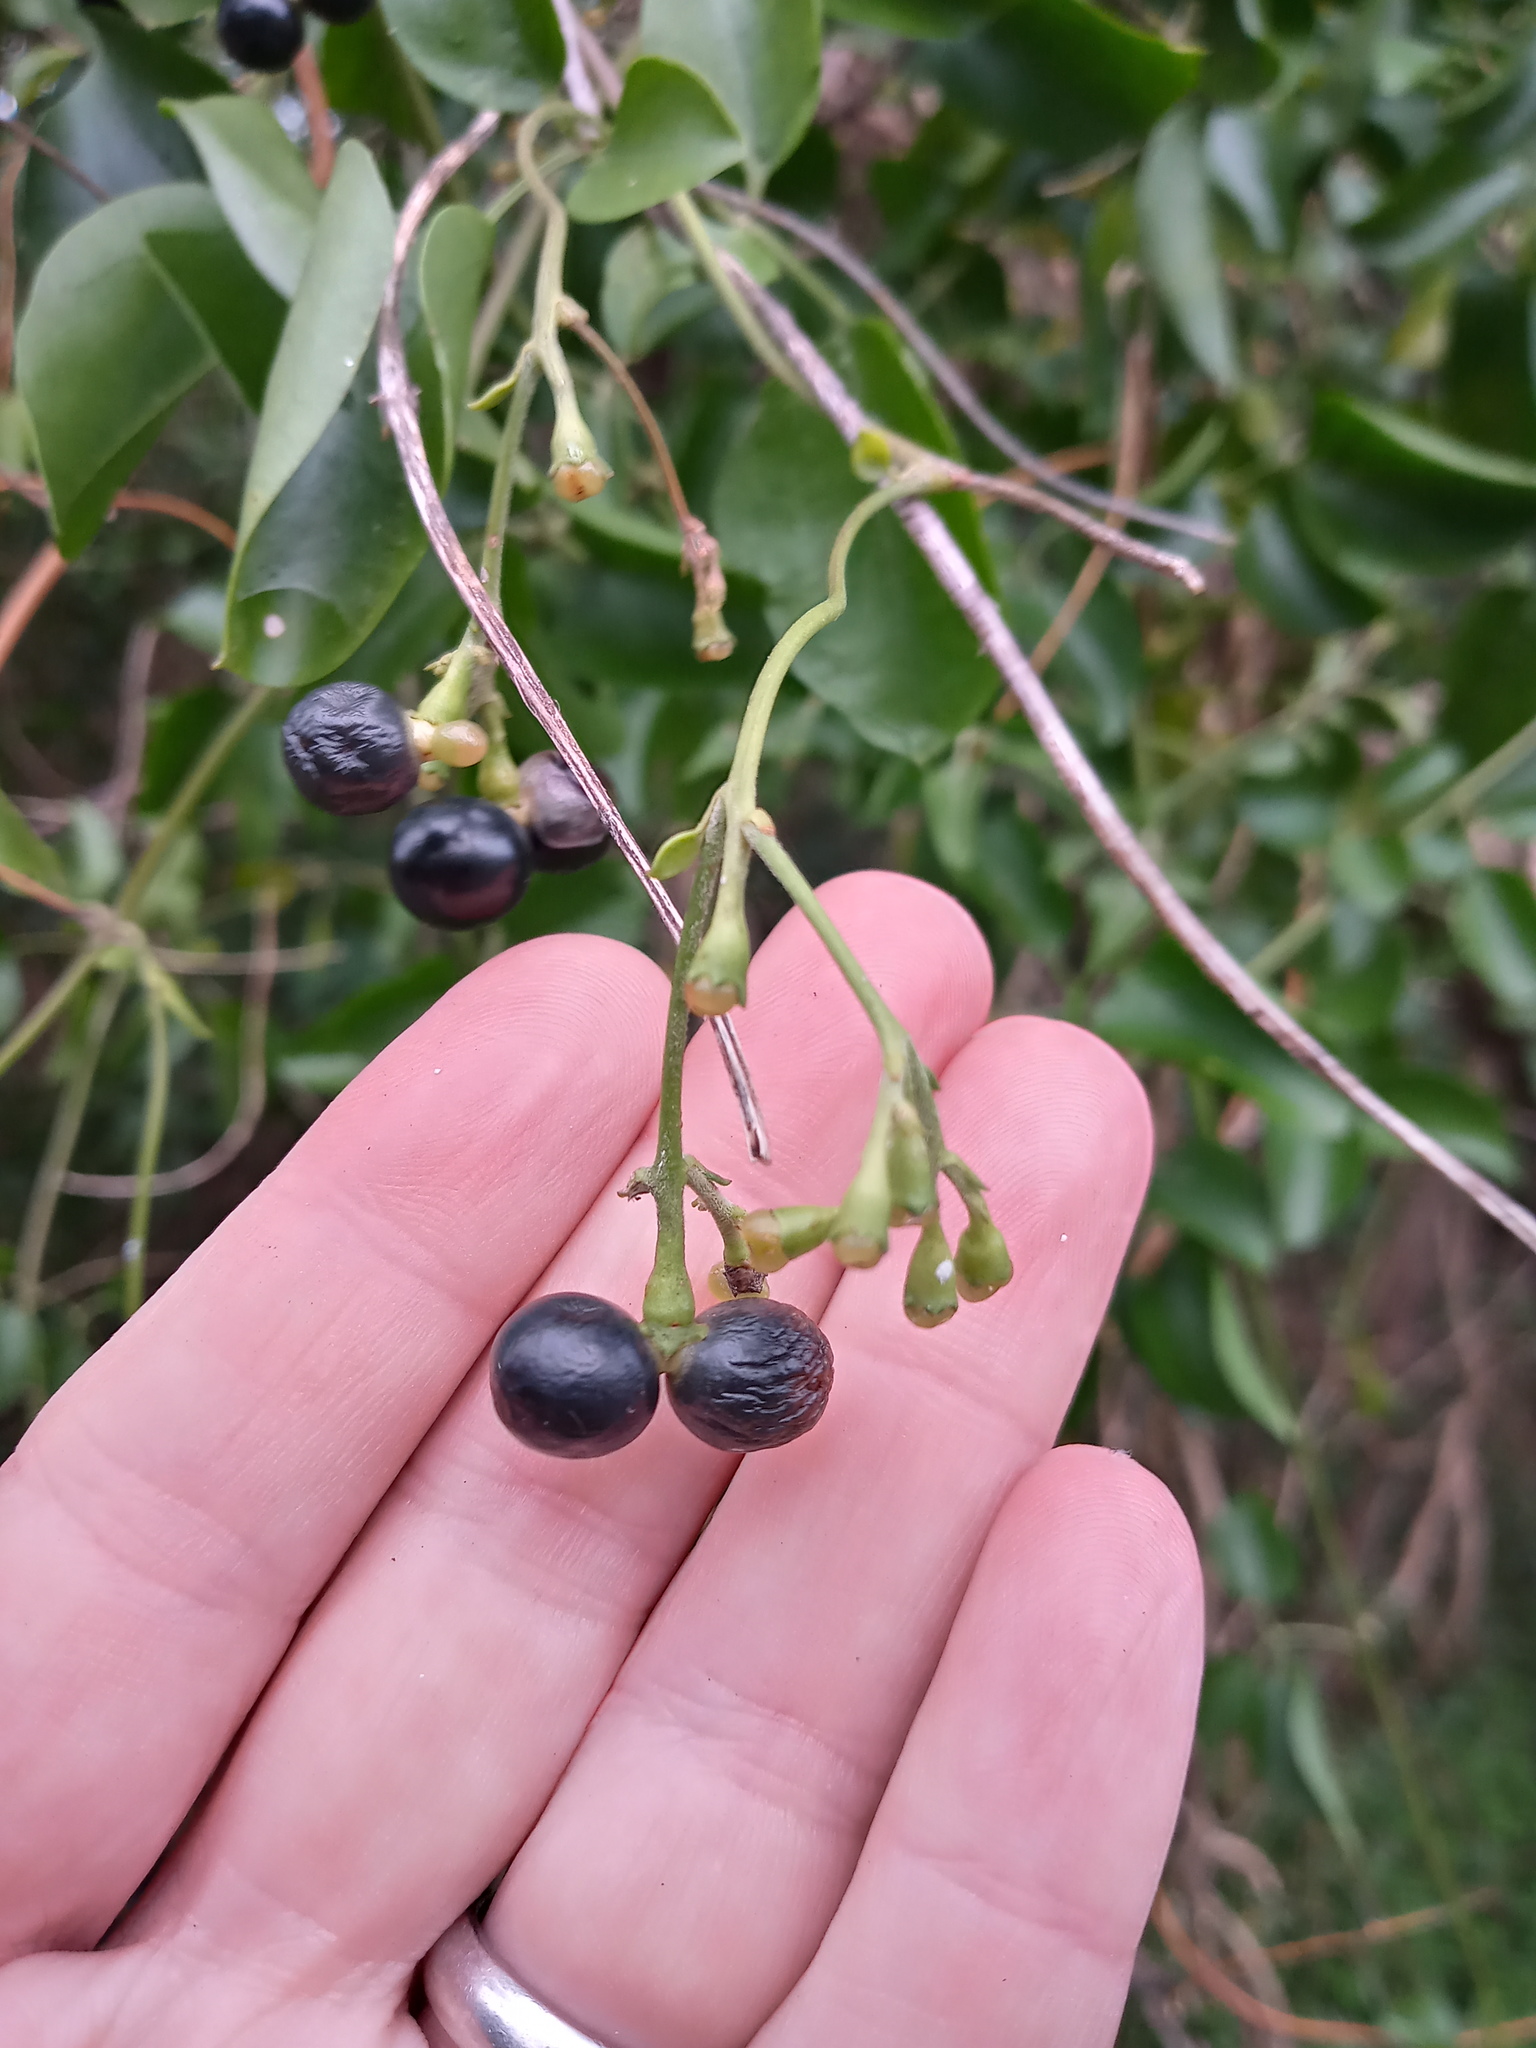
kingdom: Plantae
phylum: Tracheophyta
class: Magnoliopsida
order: Lamiales
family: Oleaceae
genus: Jasminum
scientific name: Jasminum fluminense
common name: Brazilian jasmine
